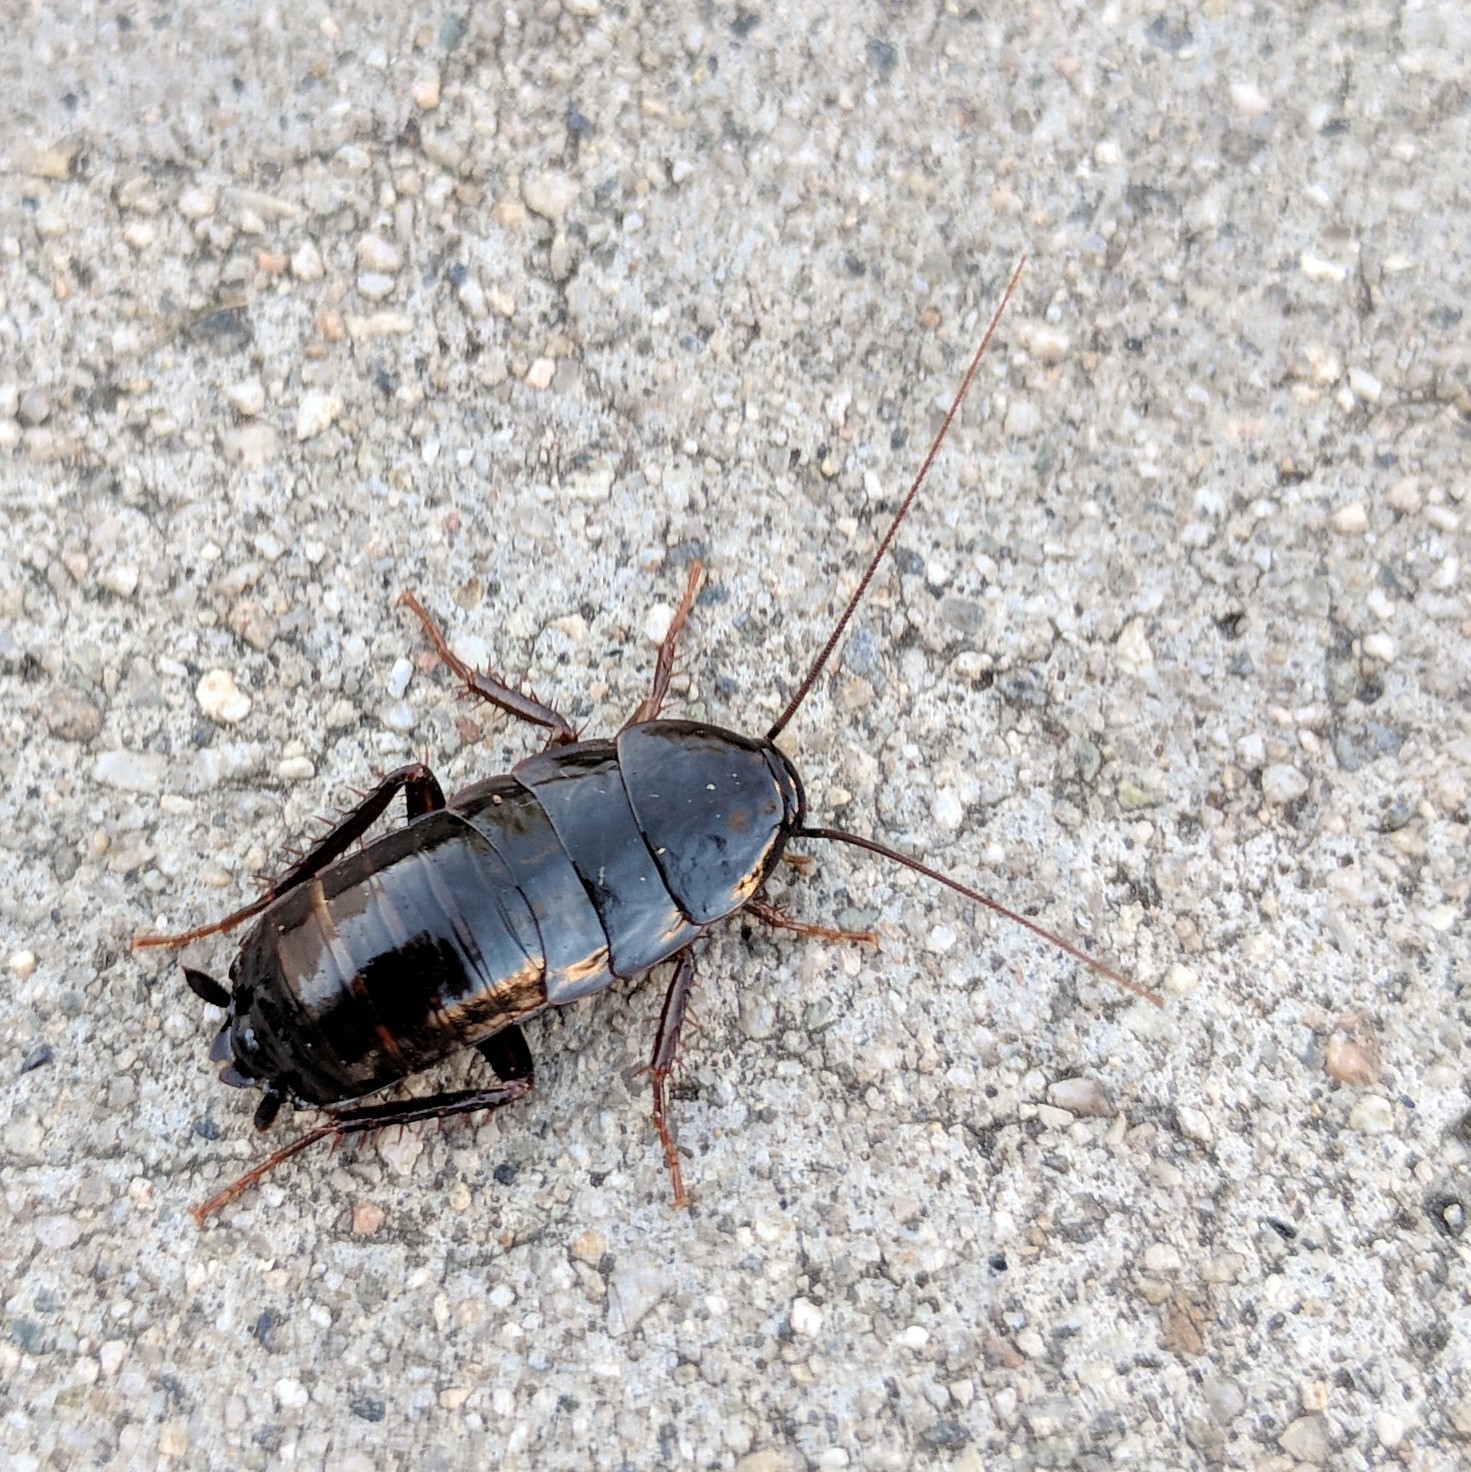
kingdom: Animalia
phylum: Arthropoda
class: Insecta
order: Blattodea
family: Blattidae
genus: Blatta
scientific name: Blatta orientalis
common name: Oriental cockroach
